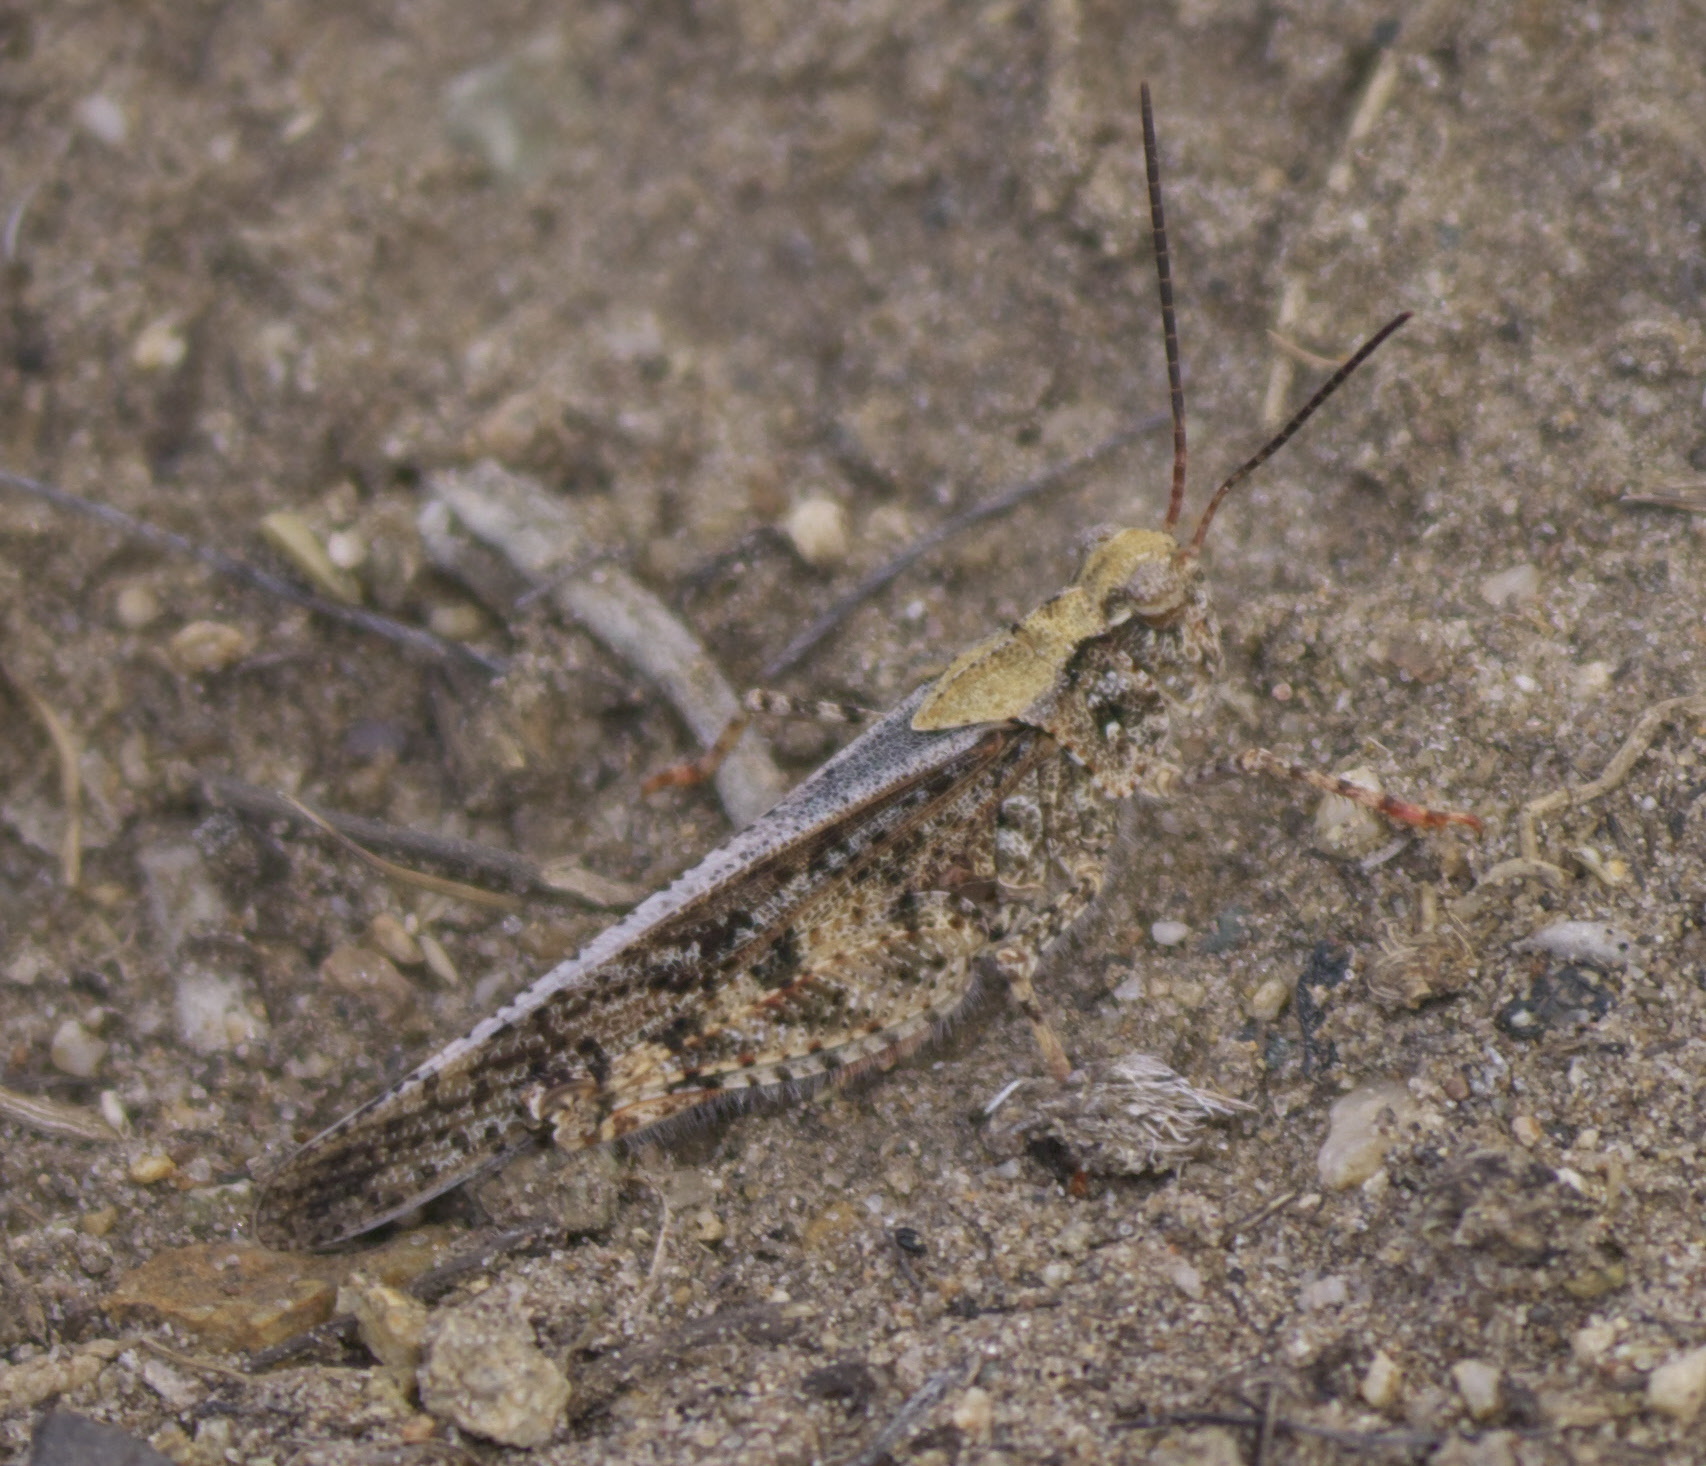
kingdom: Animalia
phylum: Arthropoda
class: Insecta
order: Orthoptera
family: Acrididae
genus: Spharagemon
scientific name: Spharagemon collare
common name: Mottled sand grasshopper
